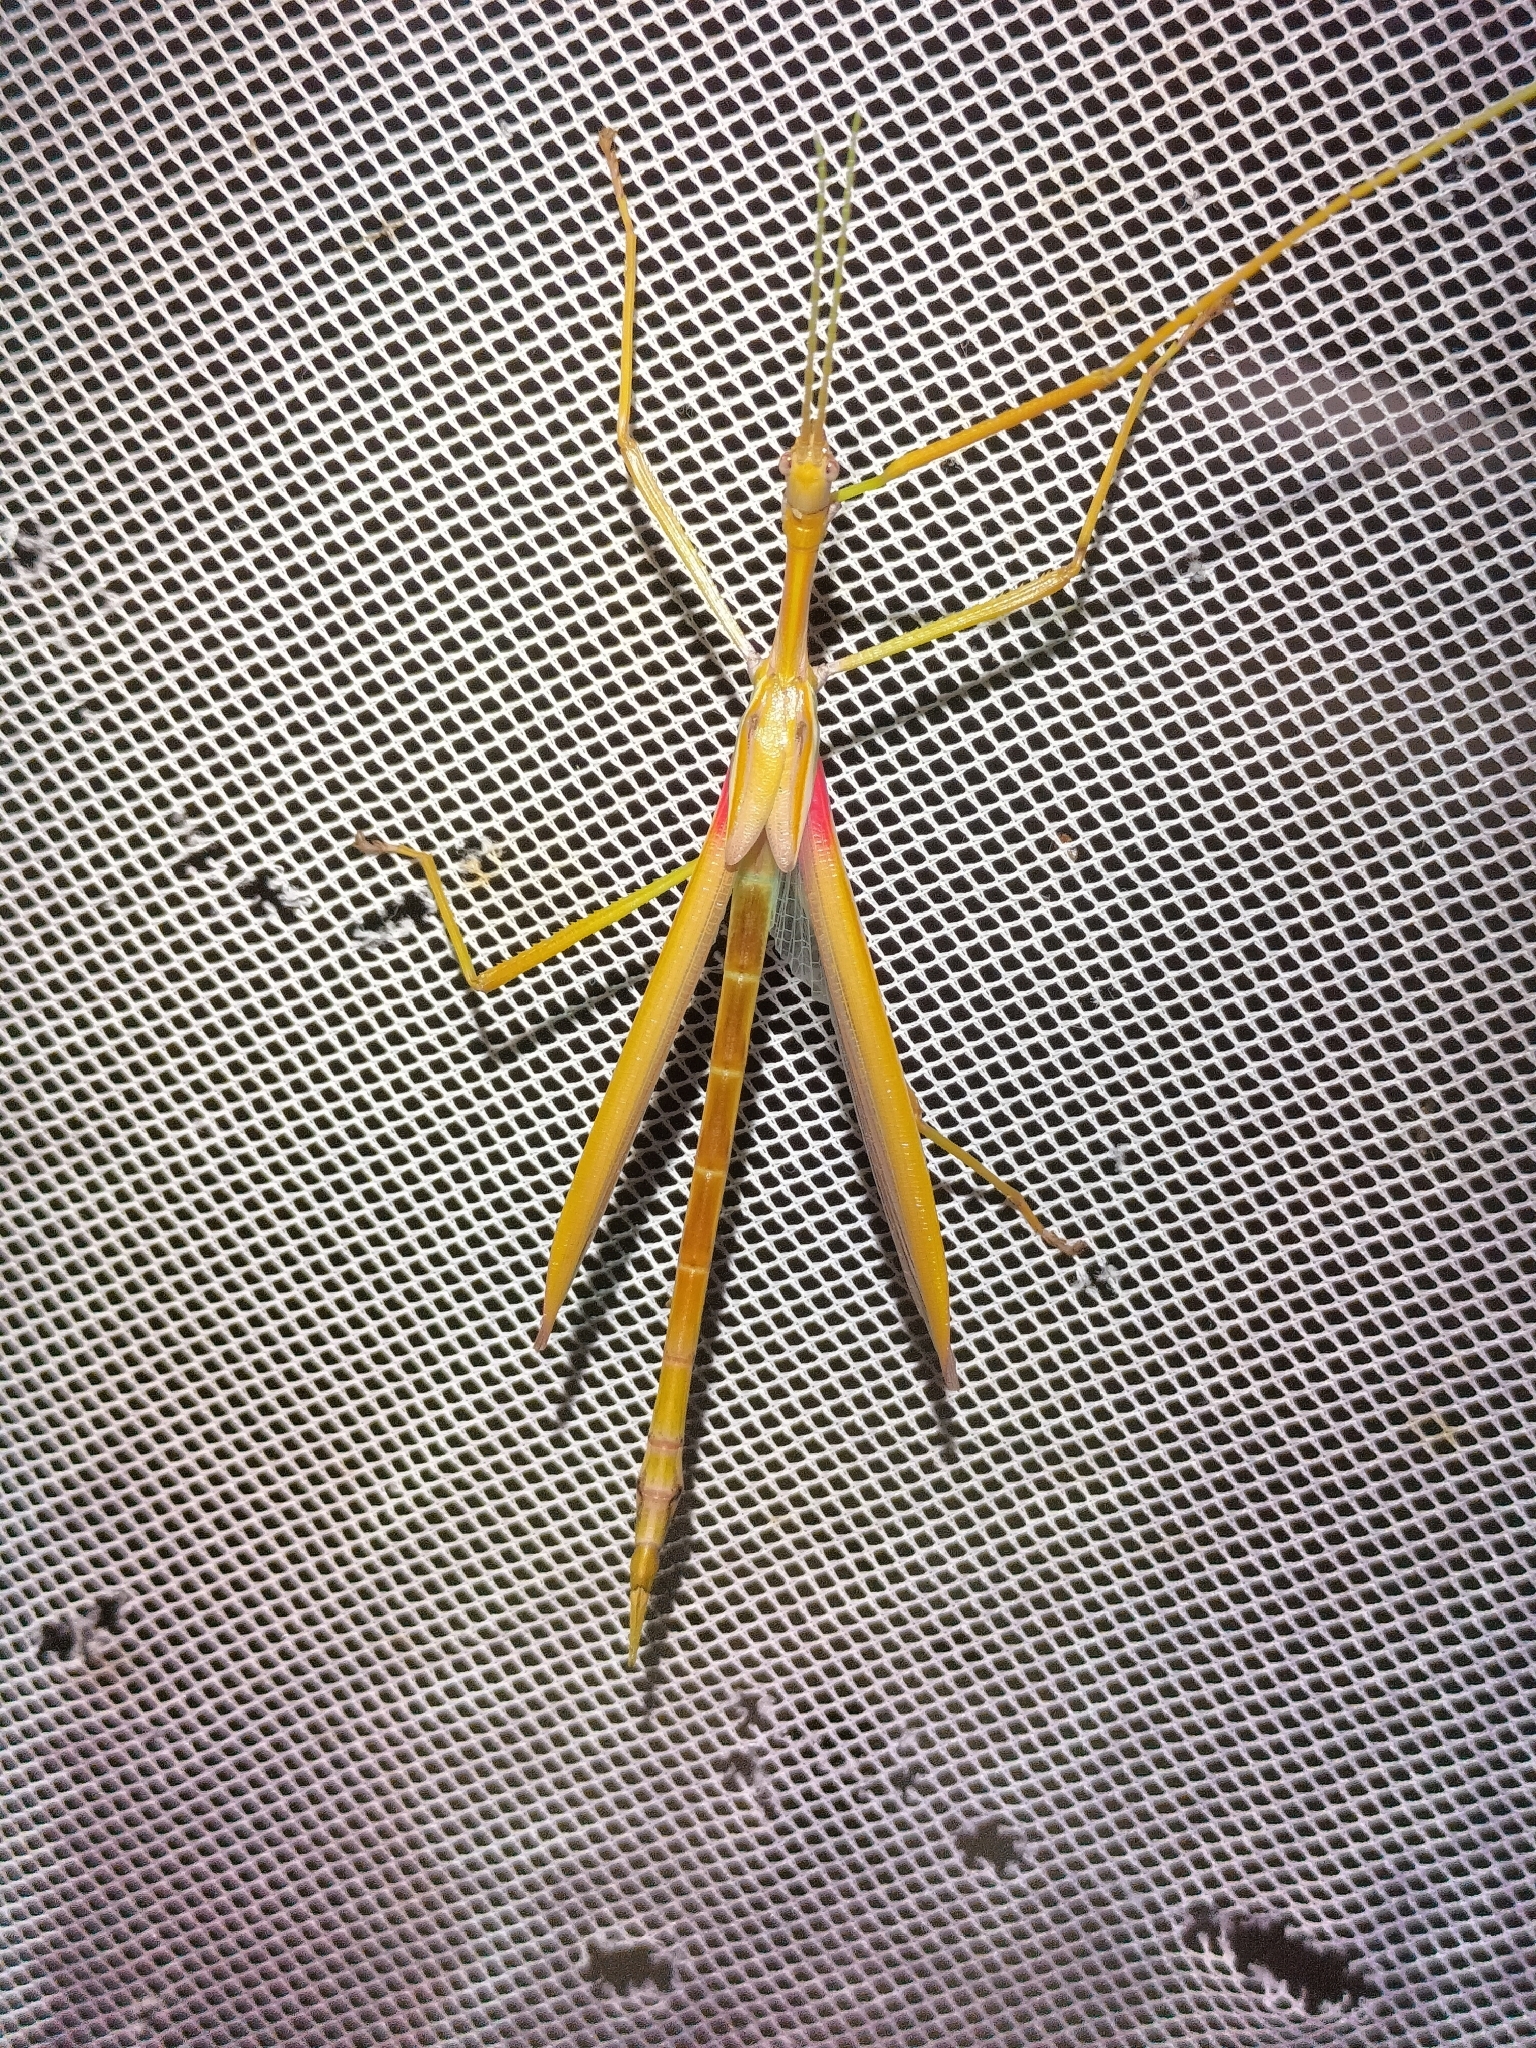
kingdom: Animalia
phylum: Arthropoda
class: Insecta
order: Phasmida
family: Phasmatidae
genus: Tropidoderus
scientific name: Tropidoderus gracilifemur
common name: Sjöstedt's graceful stick-insect
